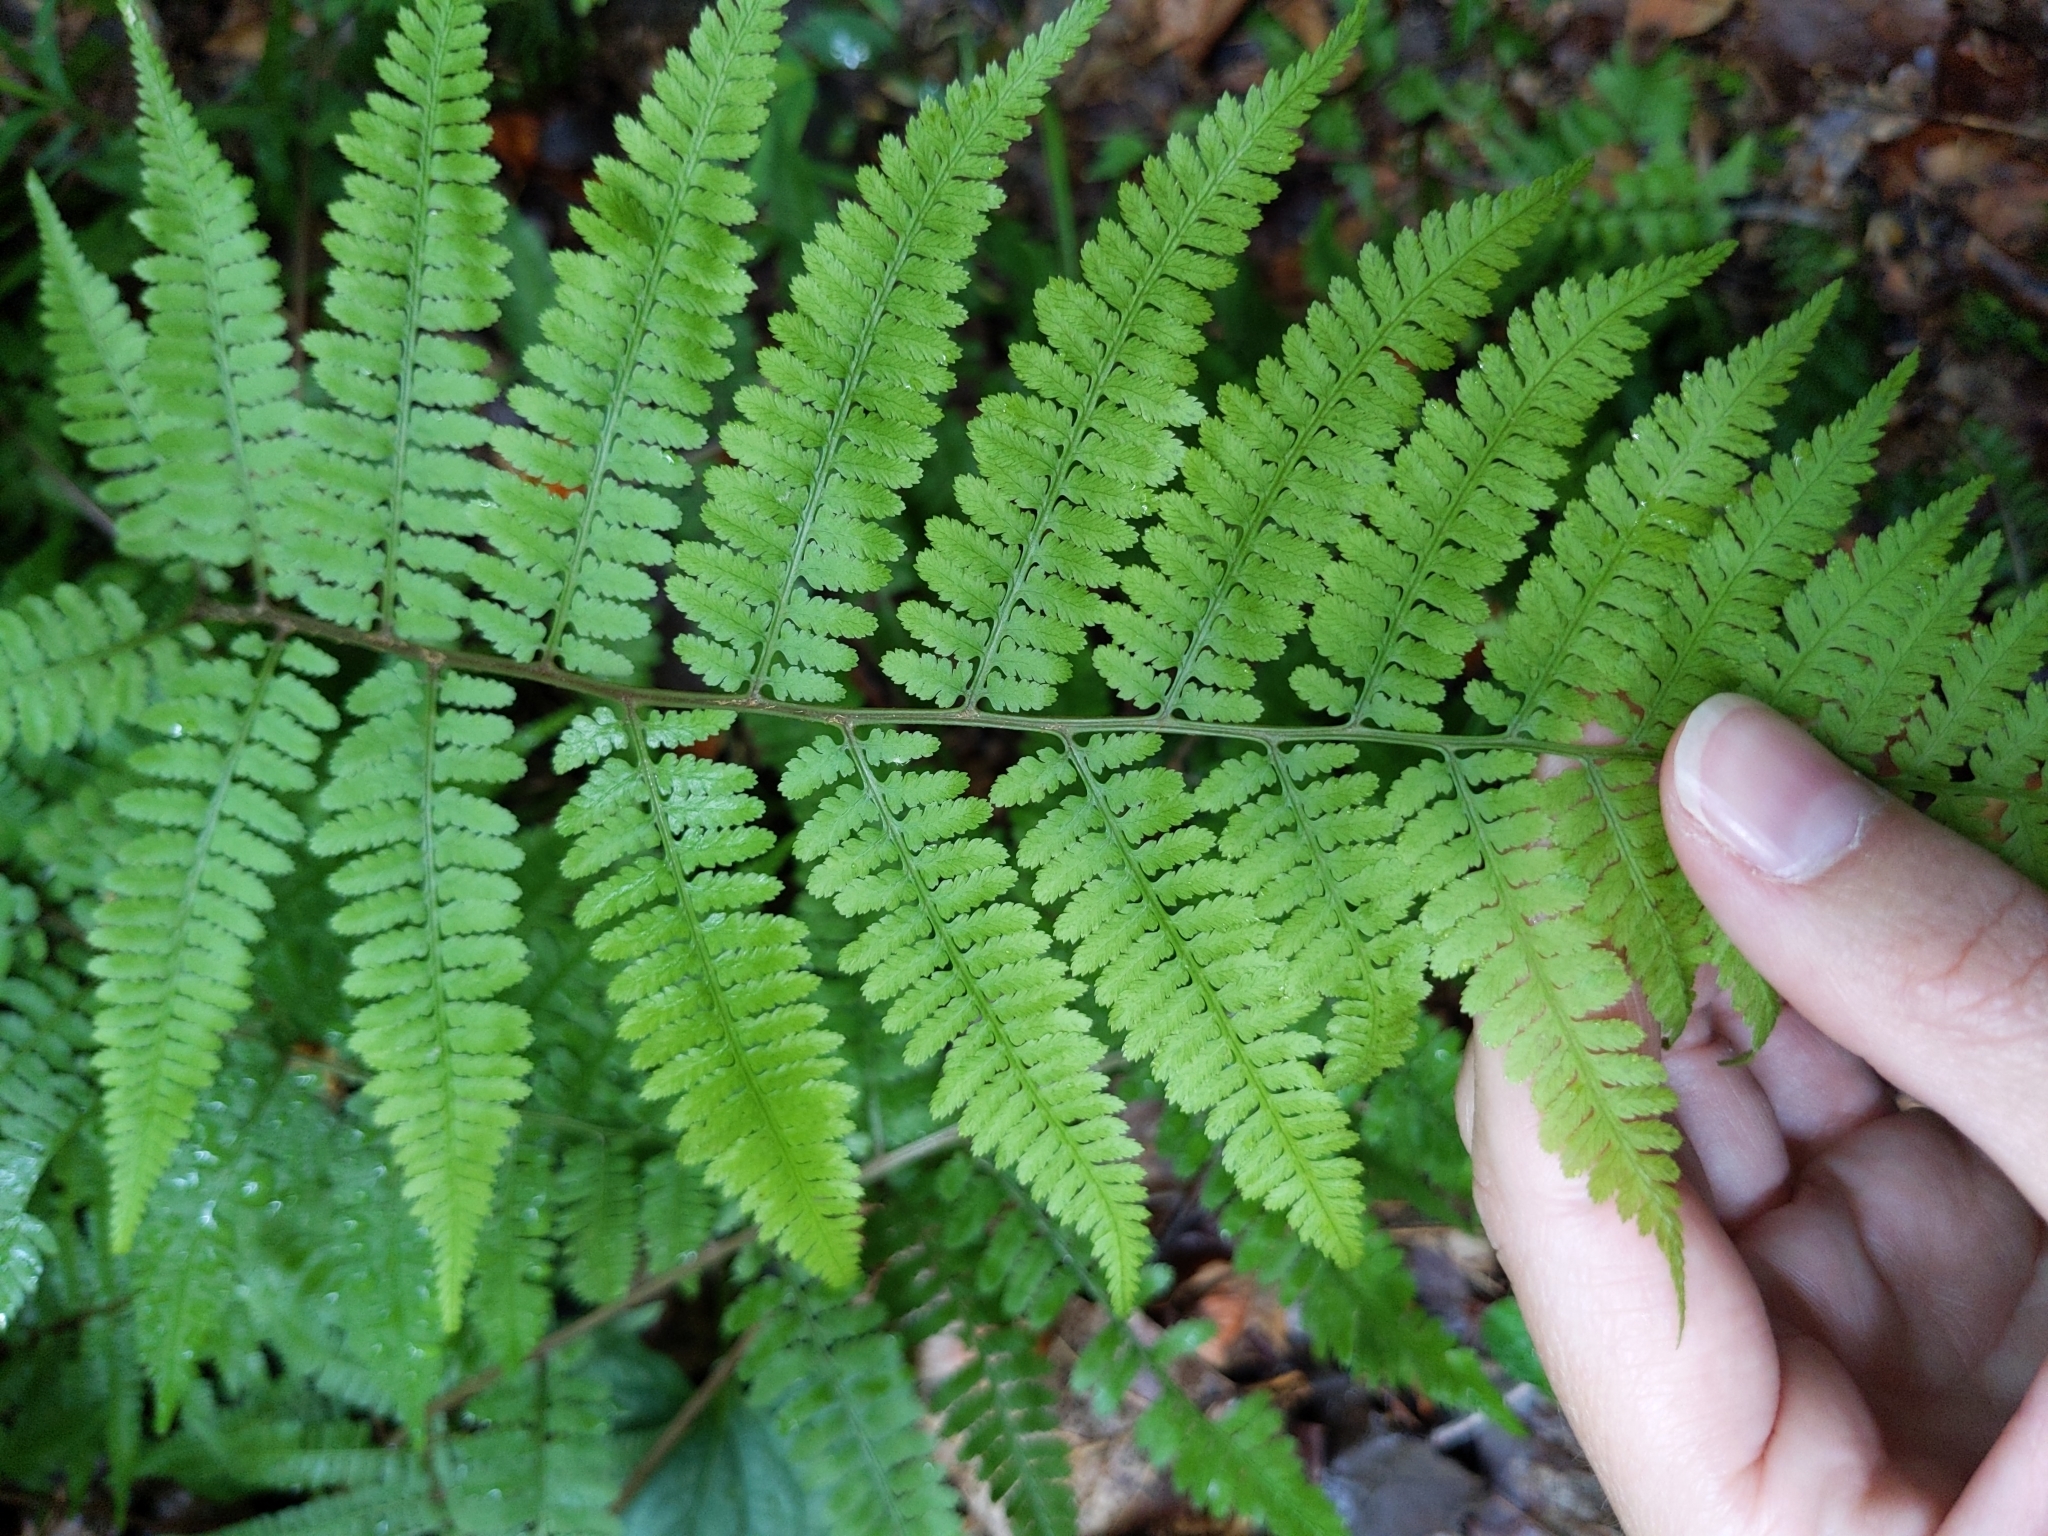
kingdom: Plantae
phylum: Tracheophyta
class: Polypodiopsida
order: Polypodiales
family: Athyriaceae
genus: Athyrium
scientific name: Athyrium asplenioides
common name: Southern lady fern
